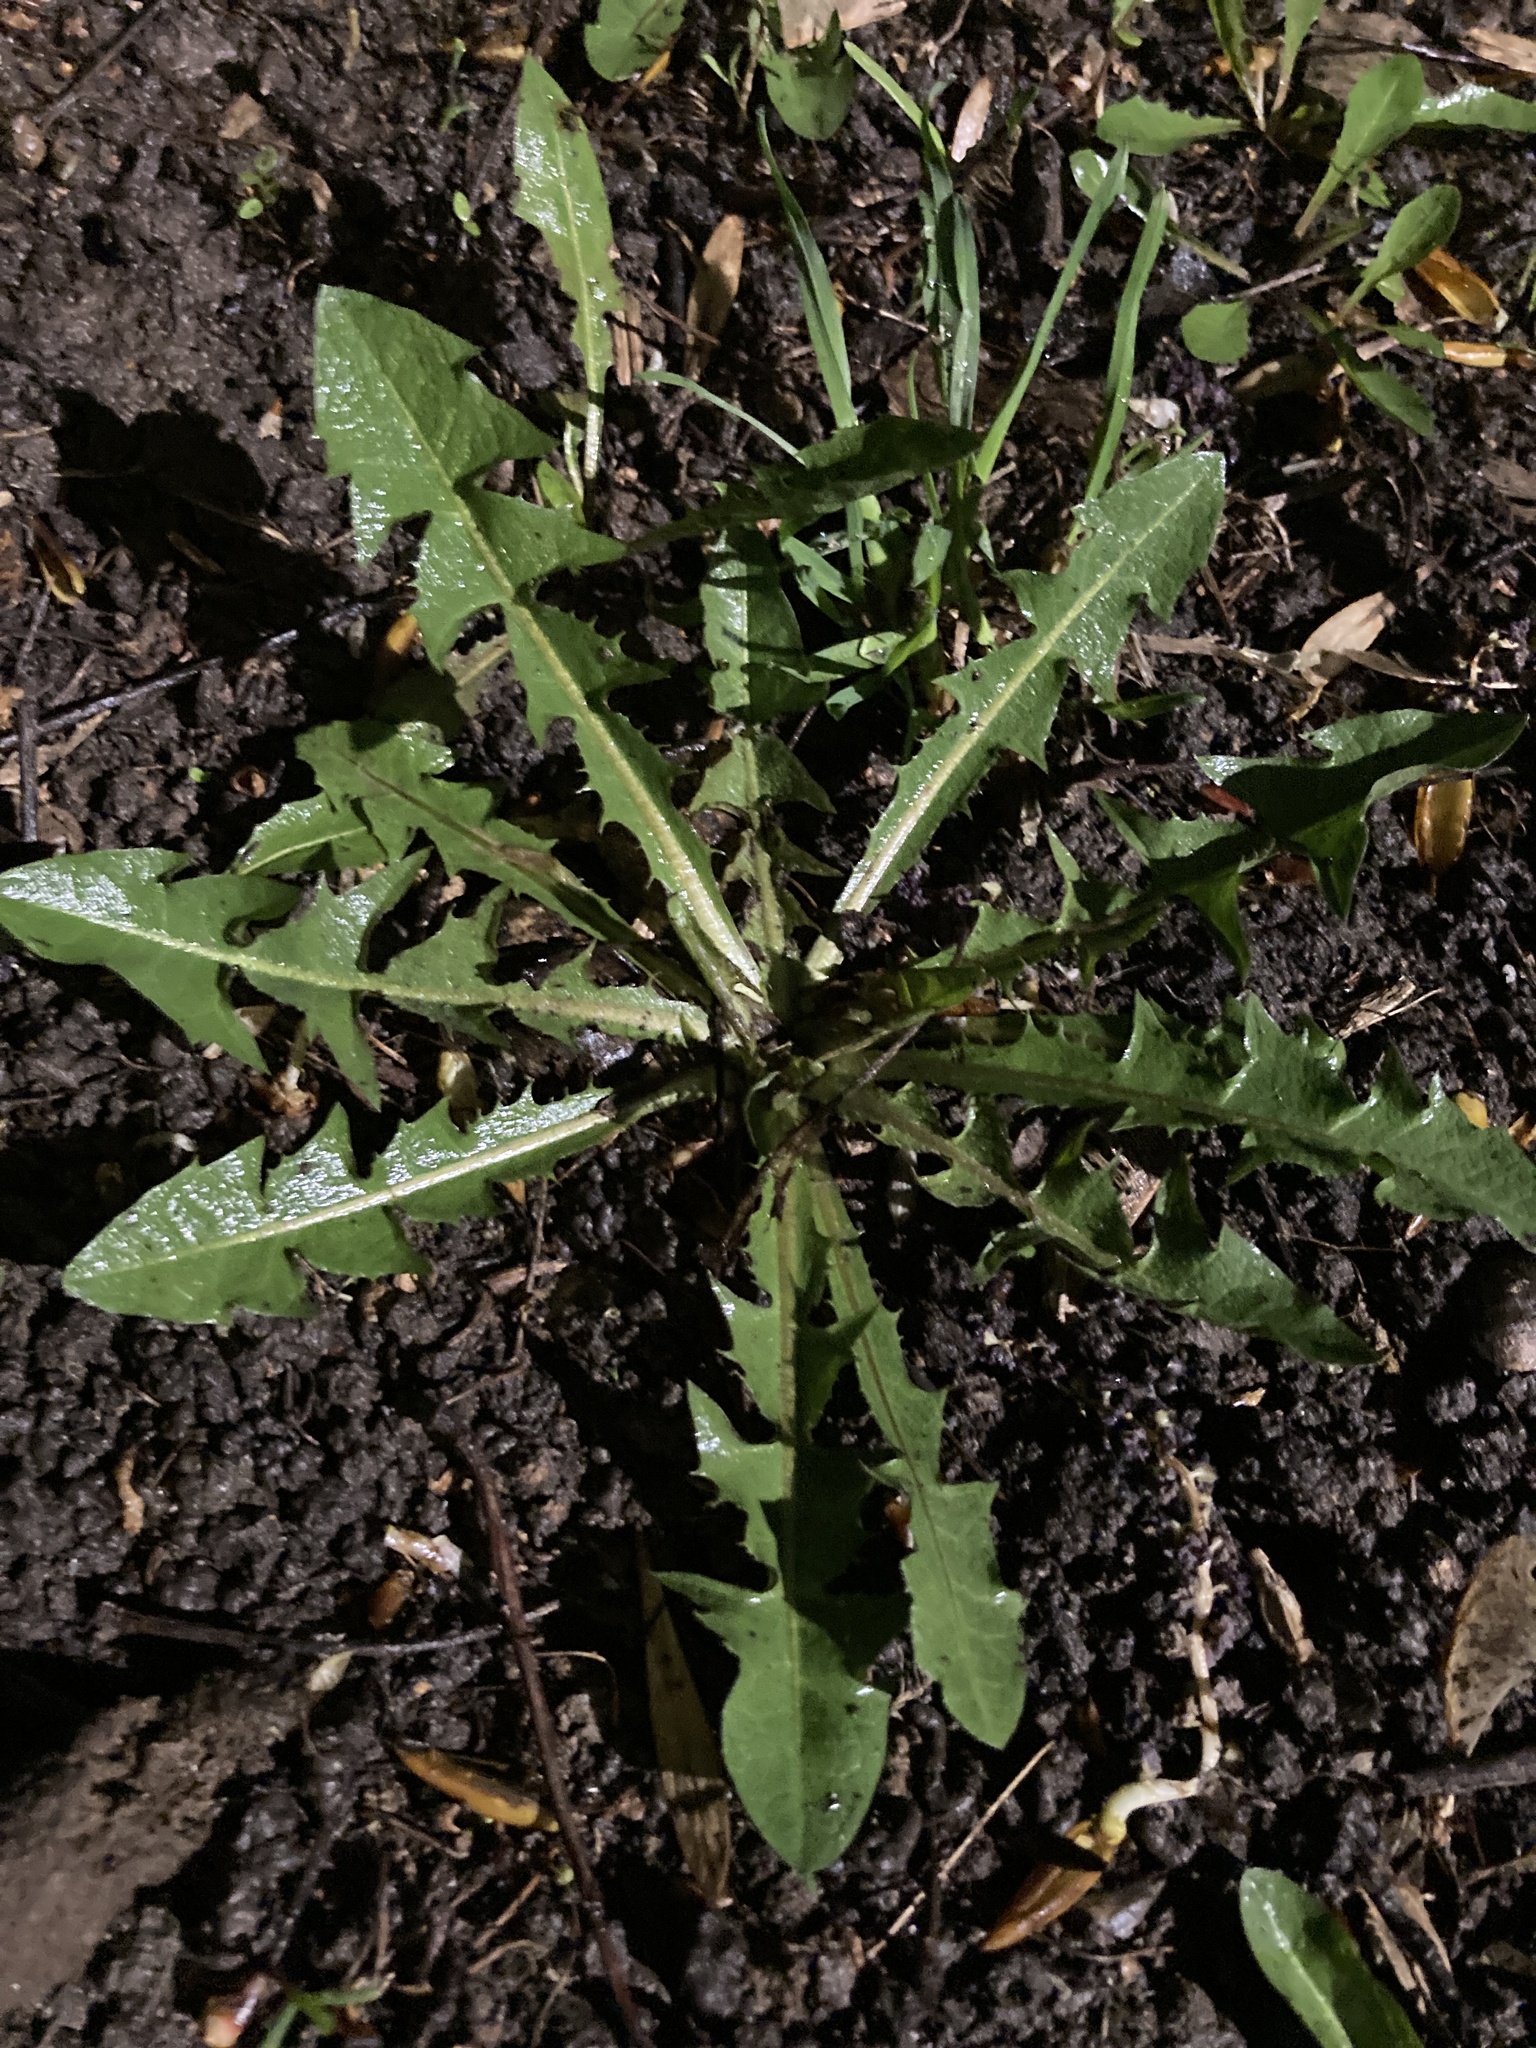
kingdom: Plantae
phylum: Tracheophyta
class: Magnoliopsida
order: Asterales
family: Asteraceae
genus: Taraxacum
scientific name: Taraxacum officinale
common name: Common dandelion
